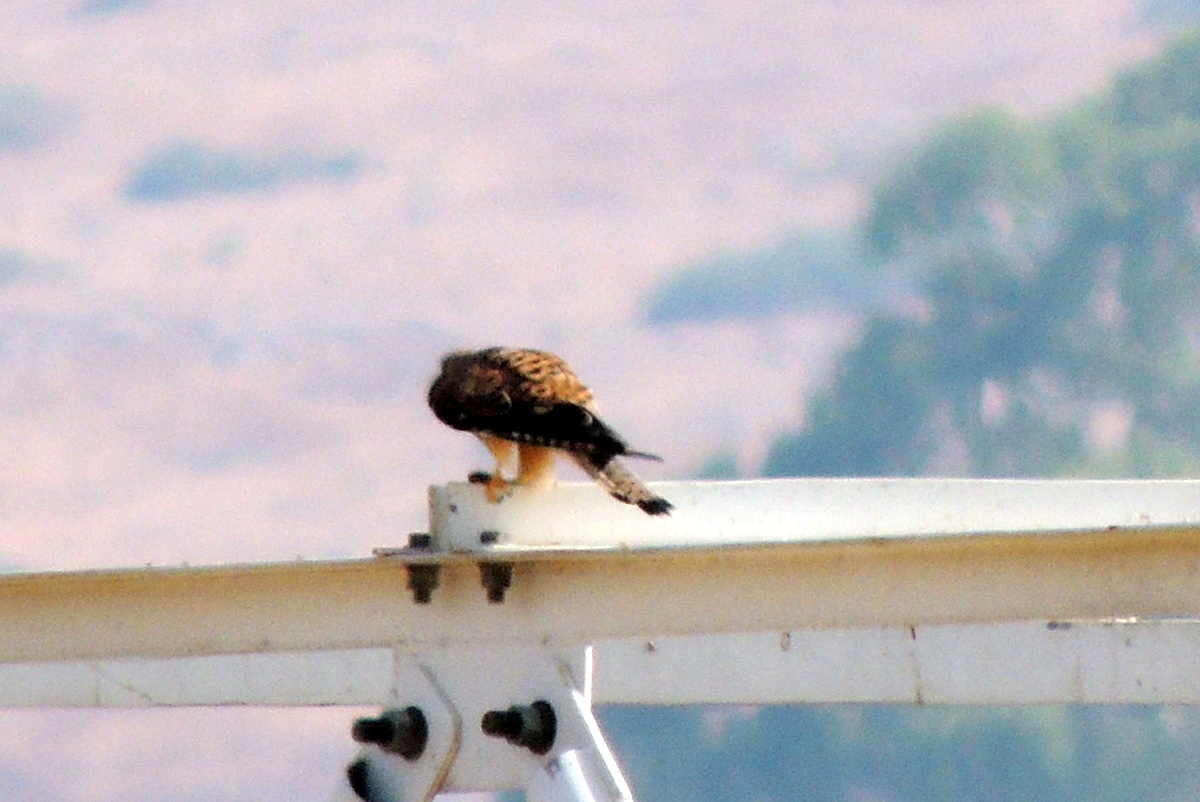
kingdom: Animalia
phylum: Chordata
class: Aves
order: Falconiformes
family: Falconidae
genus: Falco
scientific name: Falco tinnunculus
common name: Common kestrel
